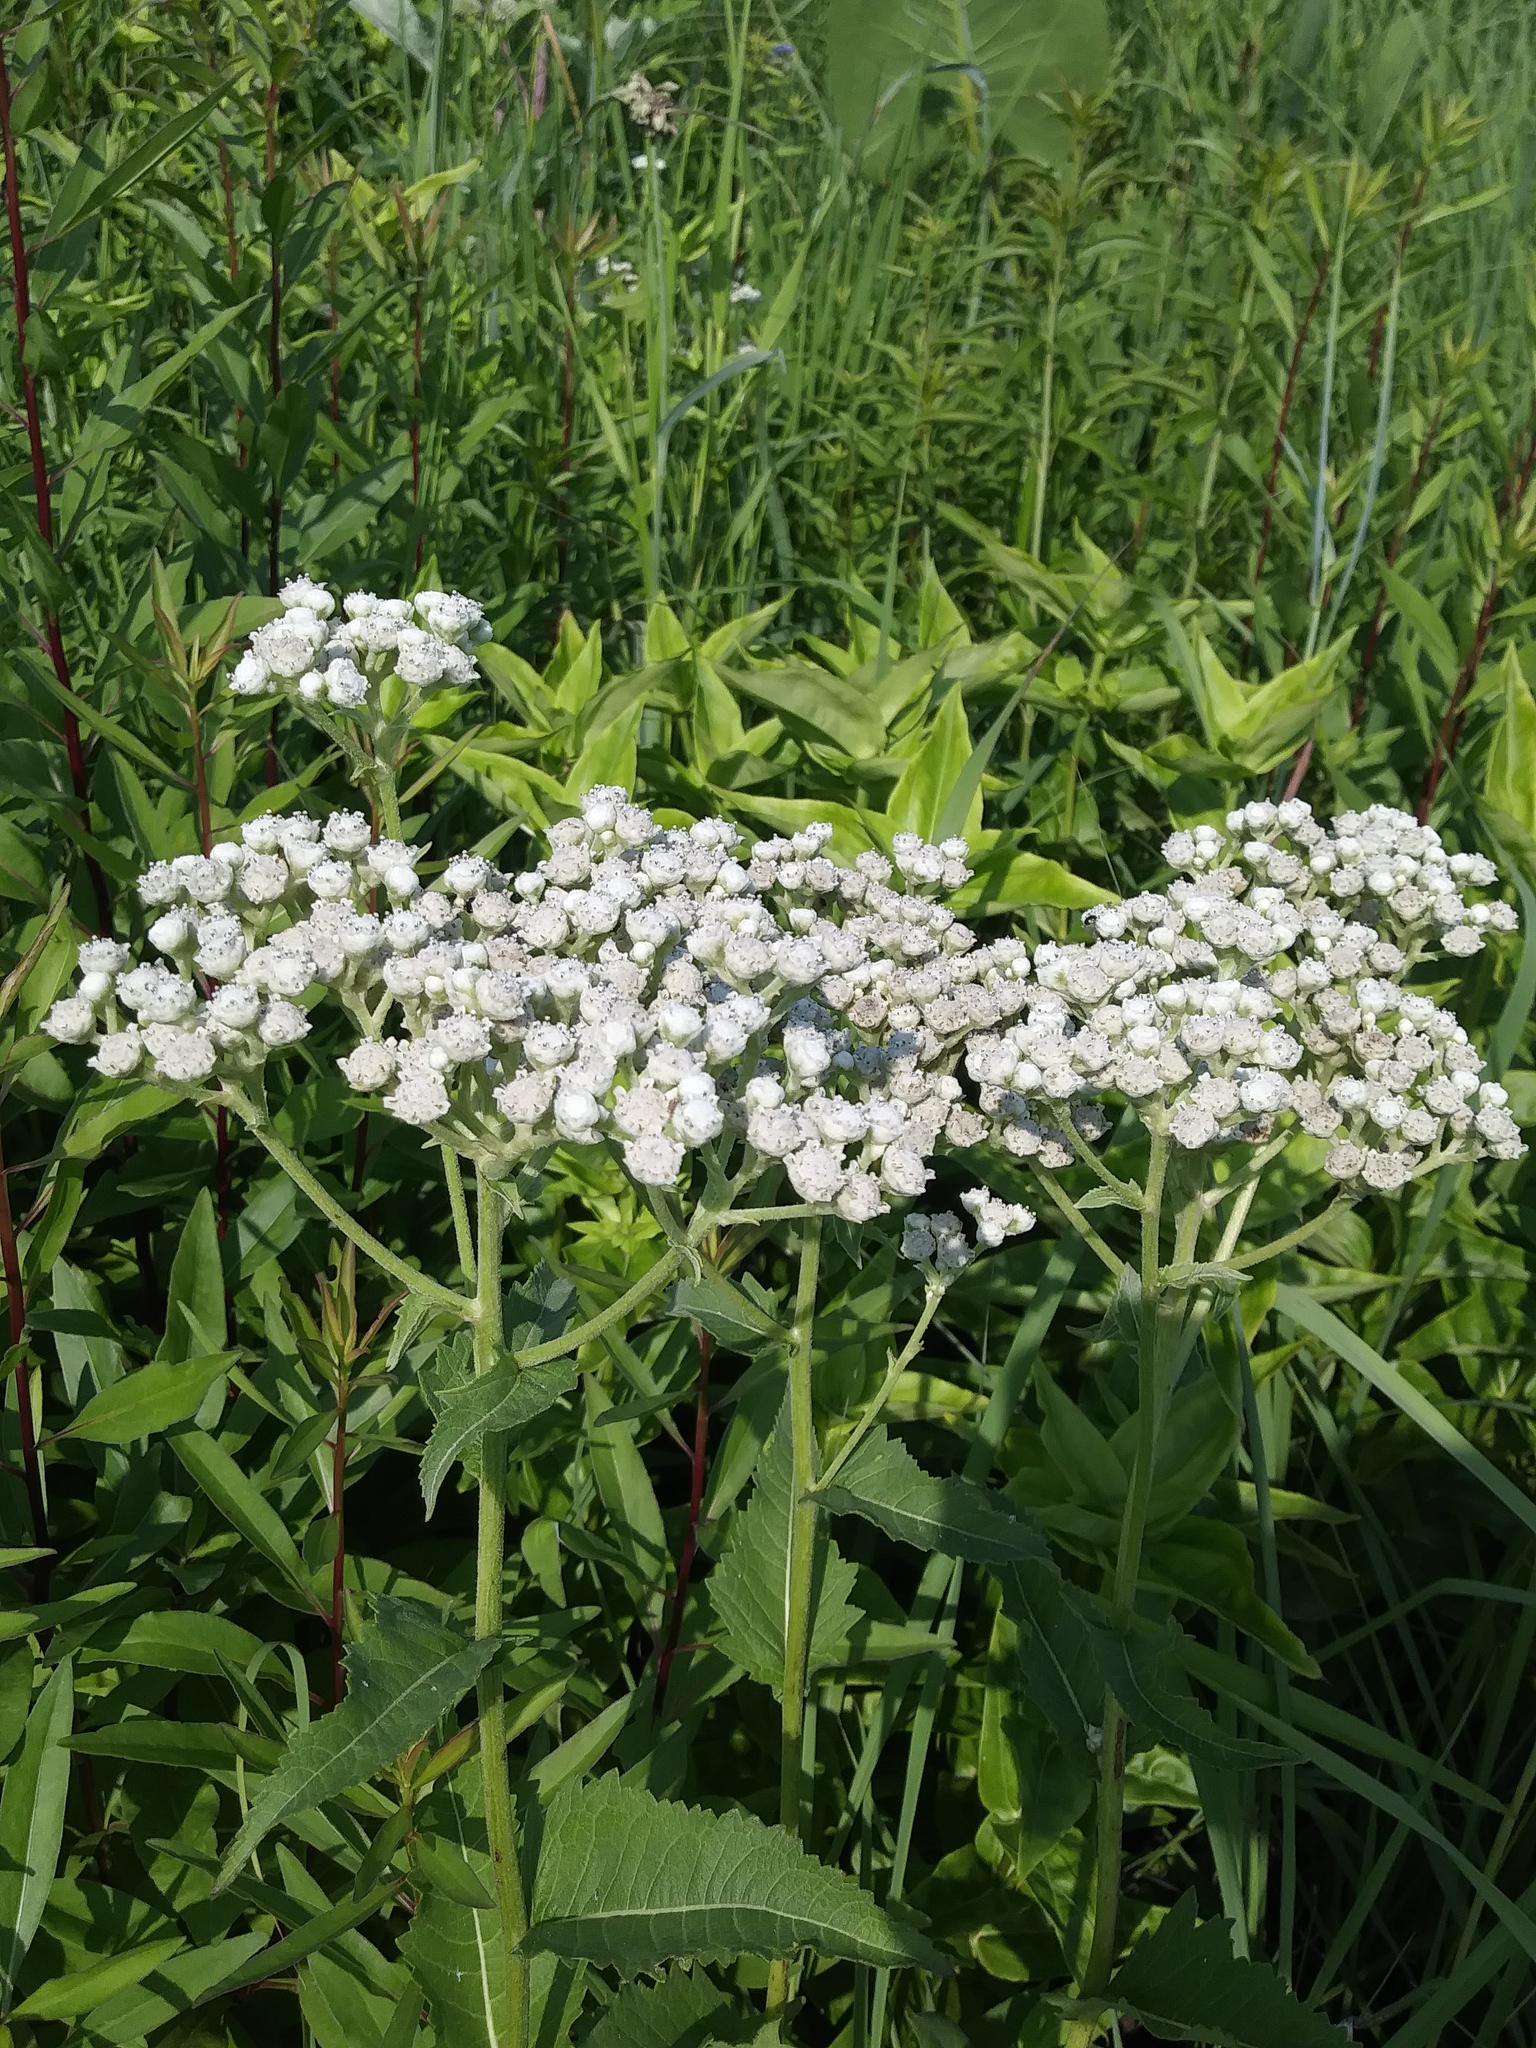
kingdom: Plantae
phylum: Tracheophyta
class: Magnoliopsida
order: Asterales
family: Asteraceae
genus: Parthenium
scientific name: Parthenium integrifolium
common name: American feverfew
